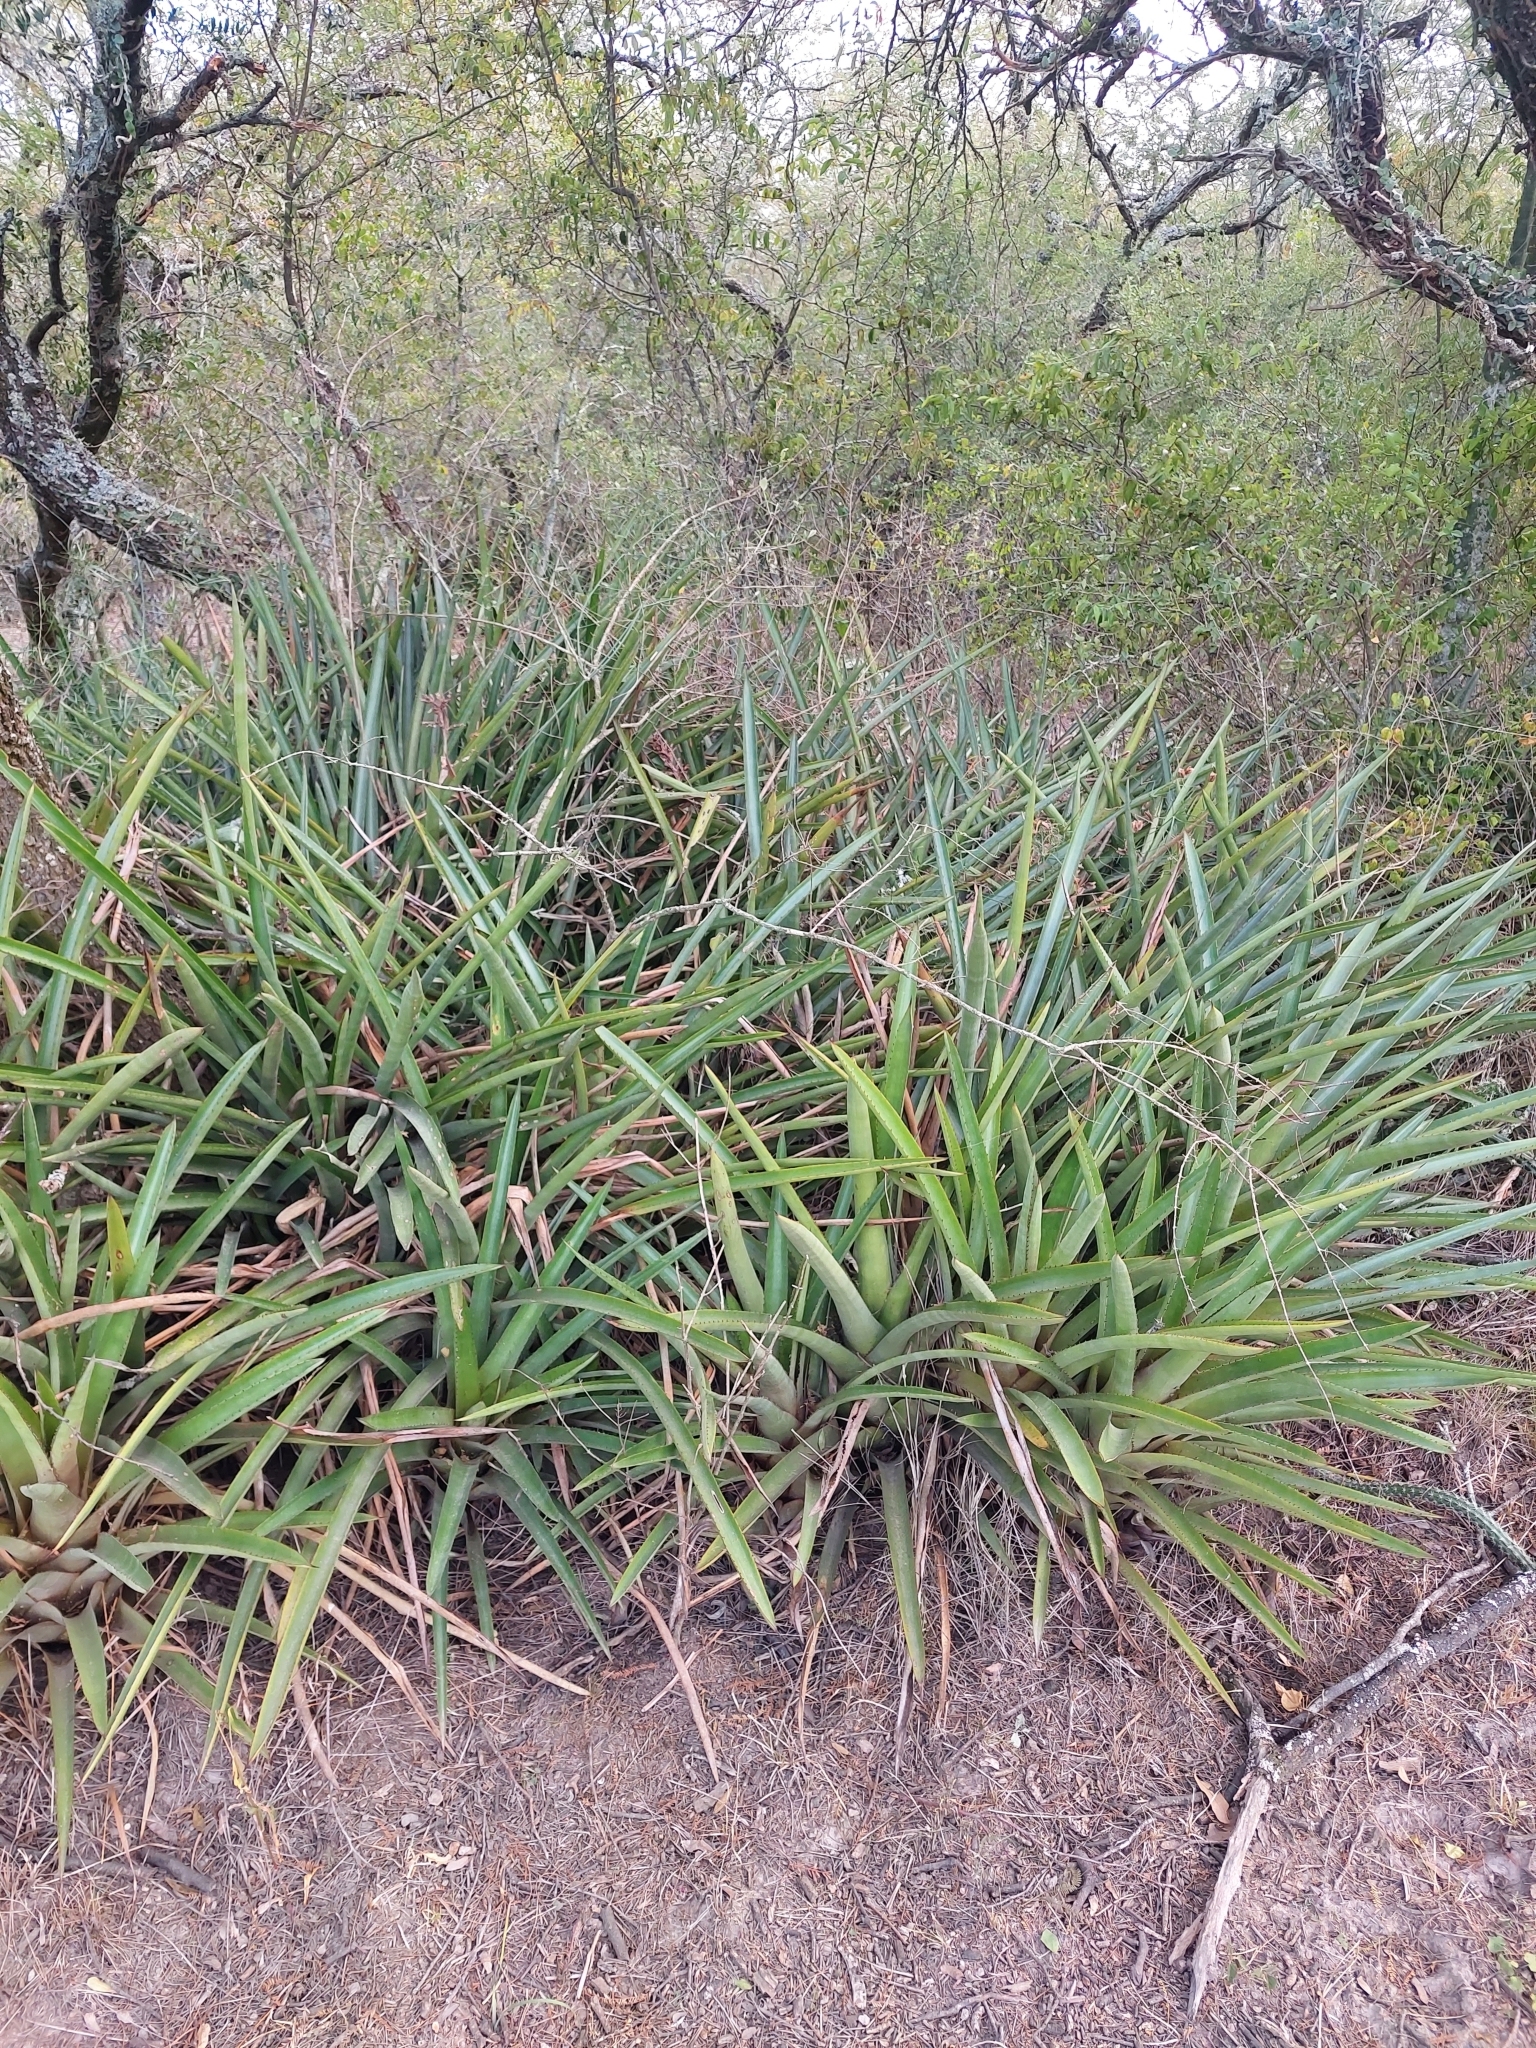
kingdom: Plantae
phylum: Tracheophyta
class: Liliopsida
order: Poales
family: Bromeliaceae
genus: Aechmea
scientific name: Aechmea distichantha
